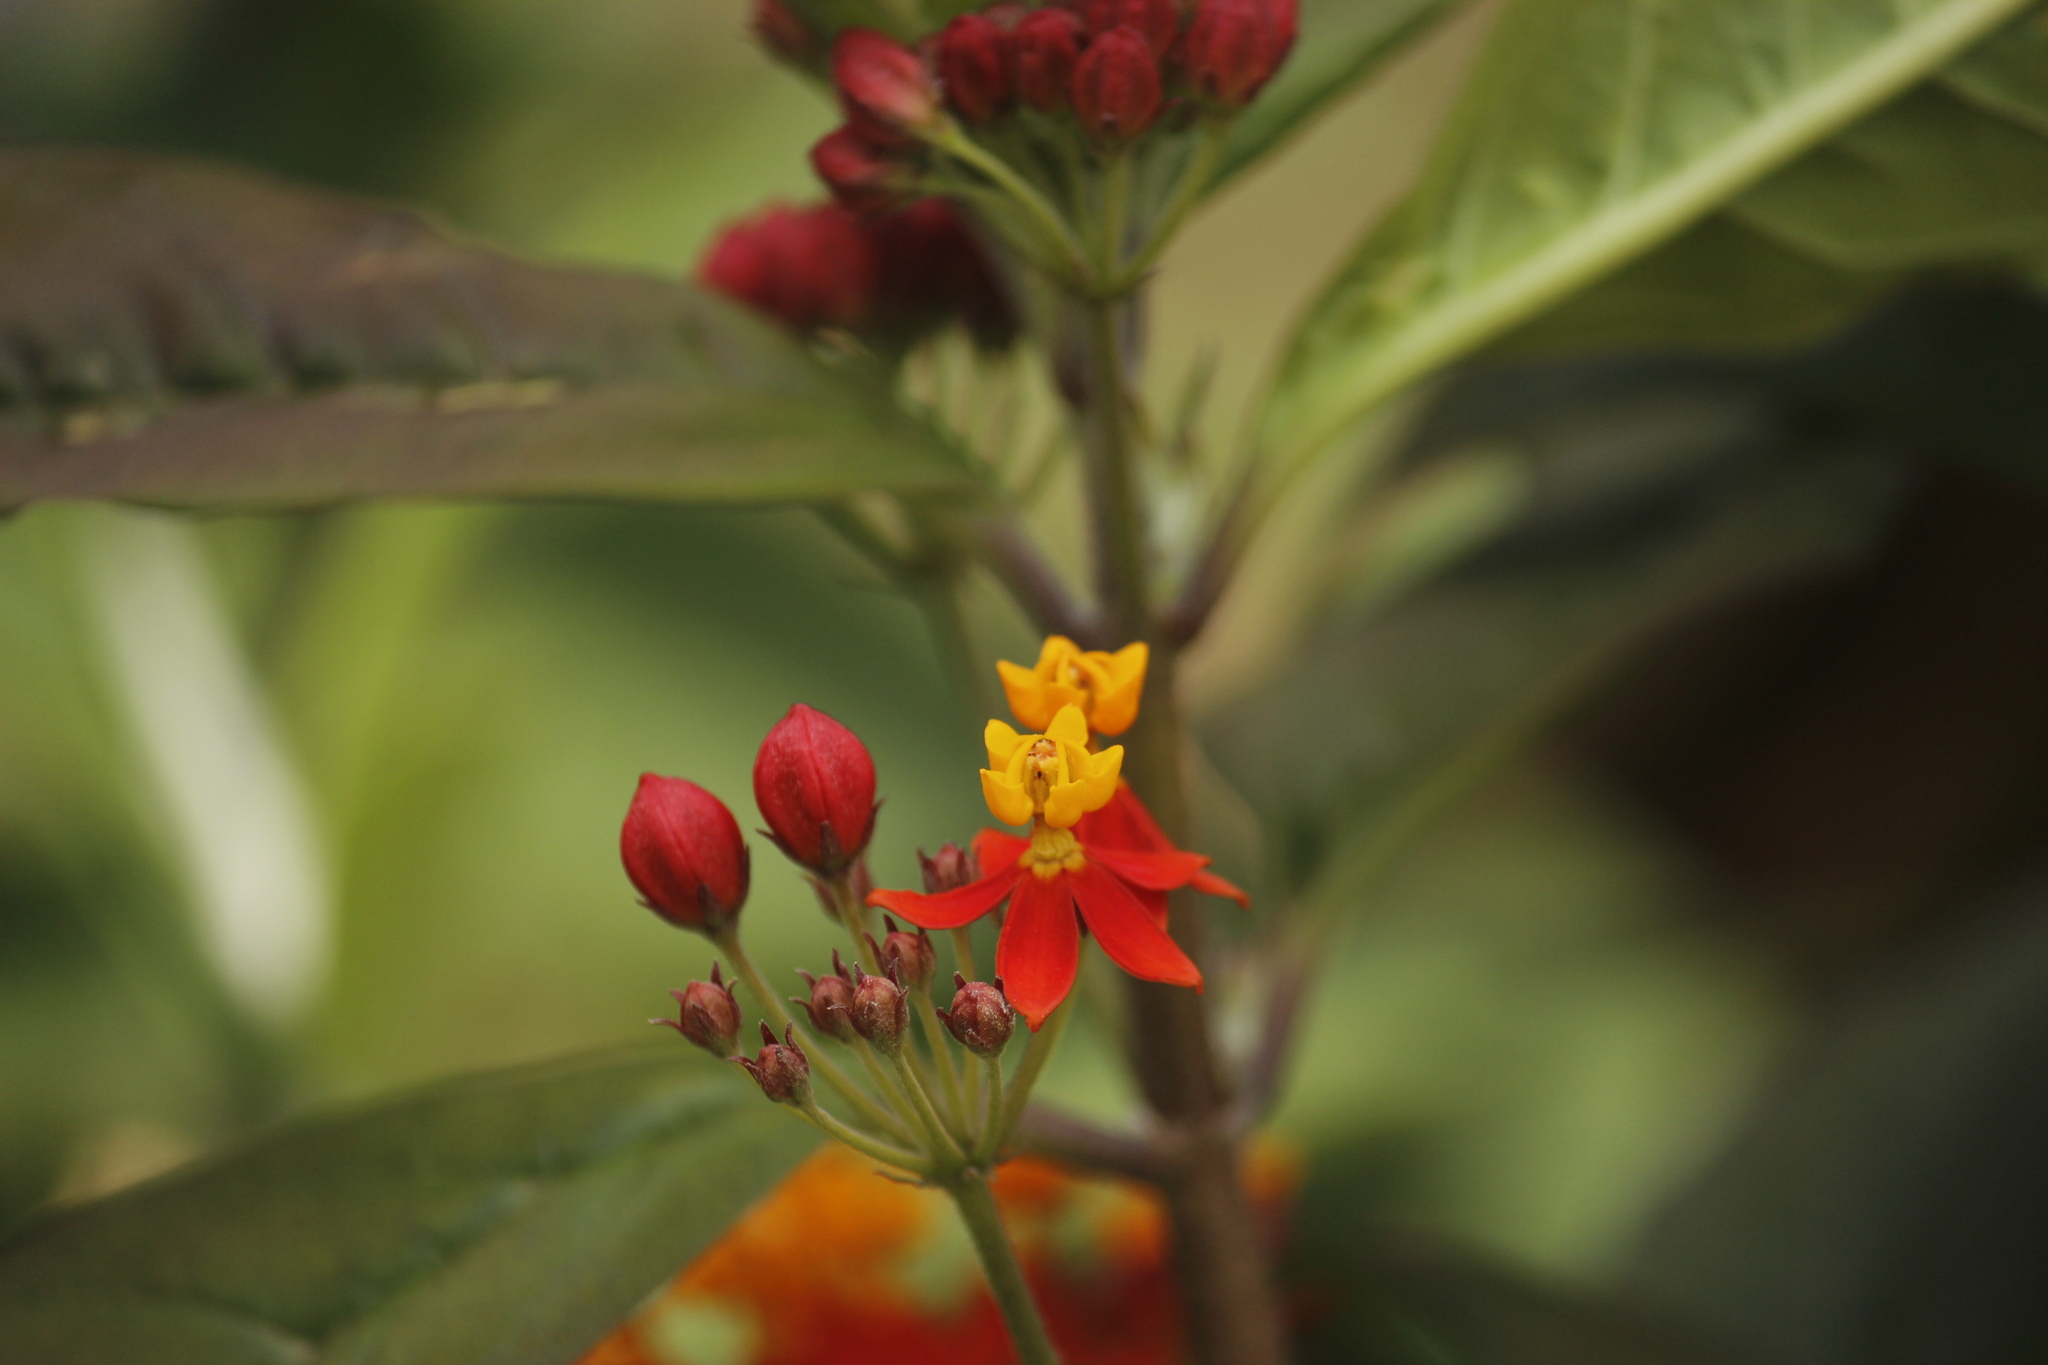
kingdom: Plantae
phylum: Tracheophyta
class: Magnoliopsida
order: Gentianales
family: Apocynaceae
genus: Asclepias
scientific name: Asclepias curassavica
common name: Bloodflower
